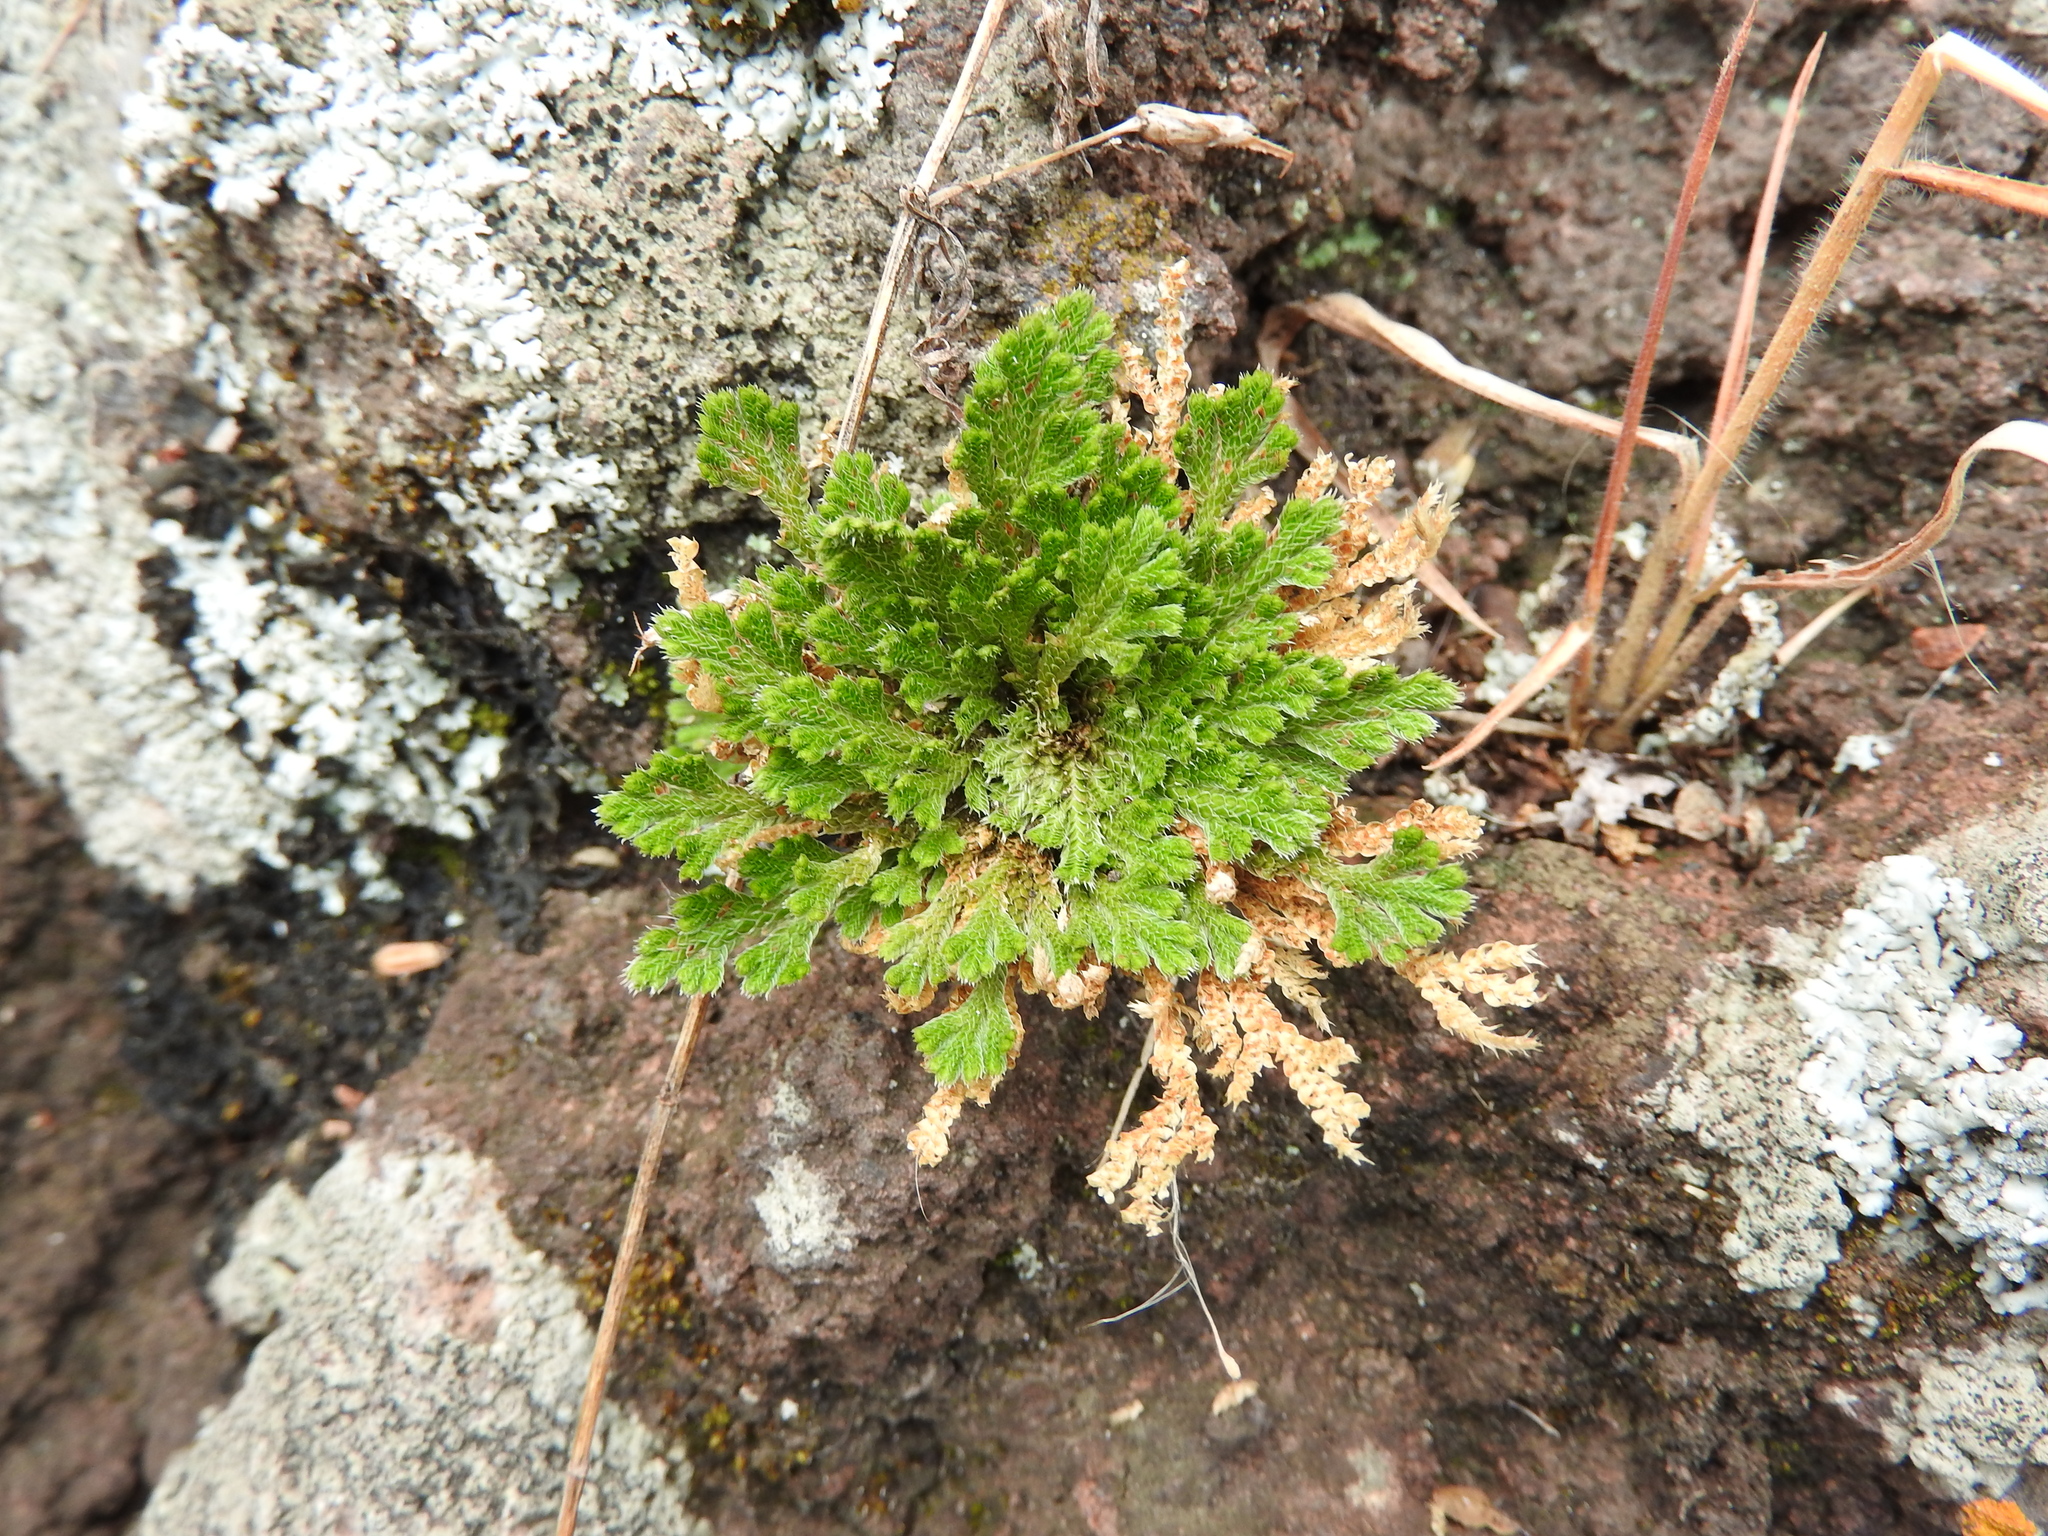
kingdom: Plantae
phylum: Tracheophyta
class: Lycopodiopsida
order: Selaginellales
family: Selaginellaceae
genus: Selaginella
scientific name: Selaginella lepidophylla
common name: Rose-of-jericho
